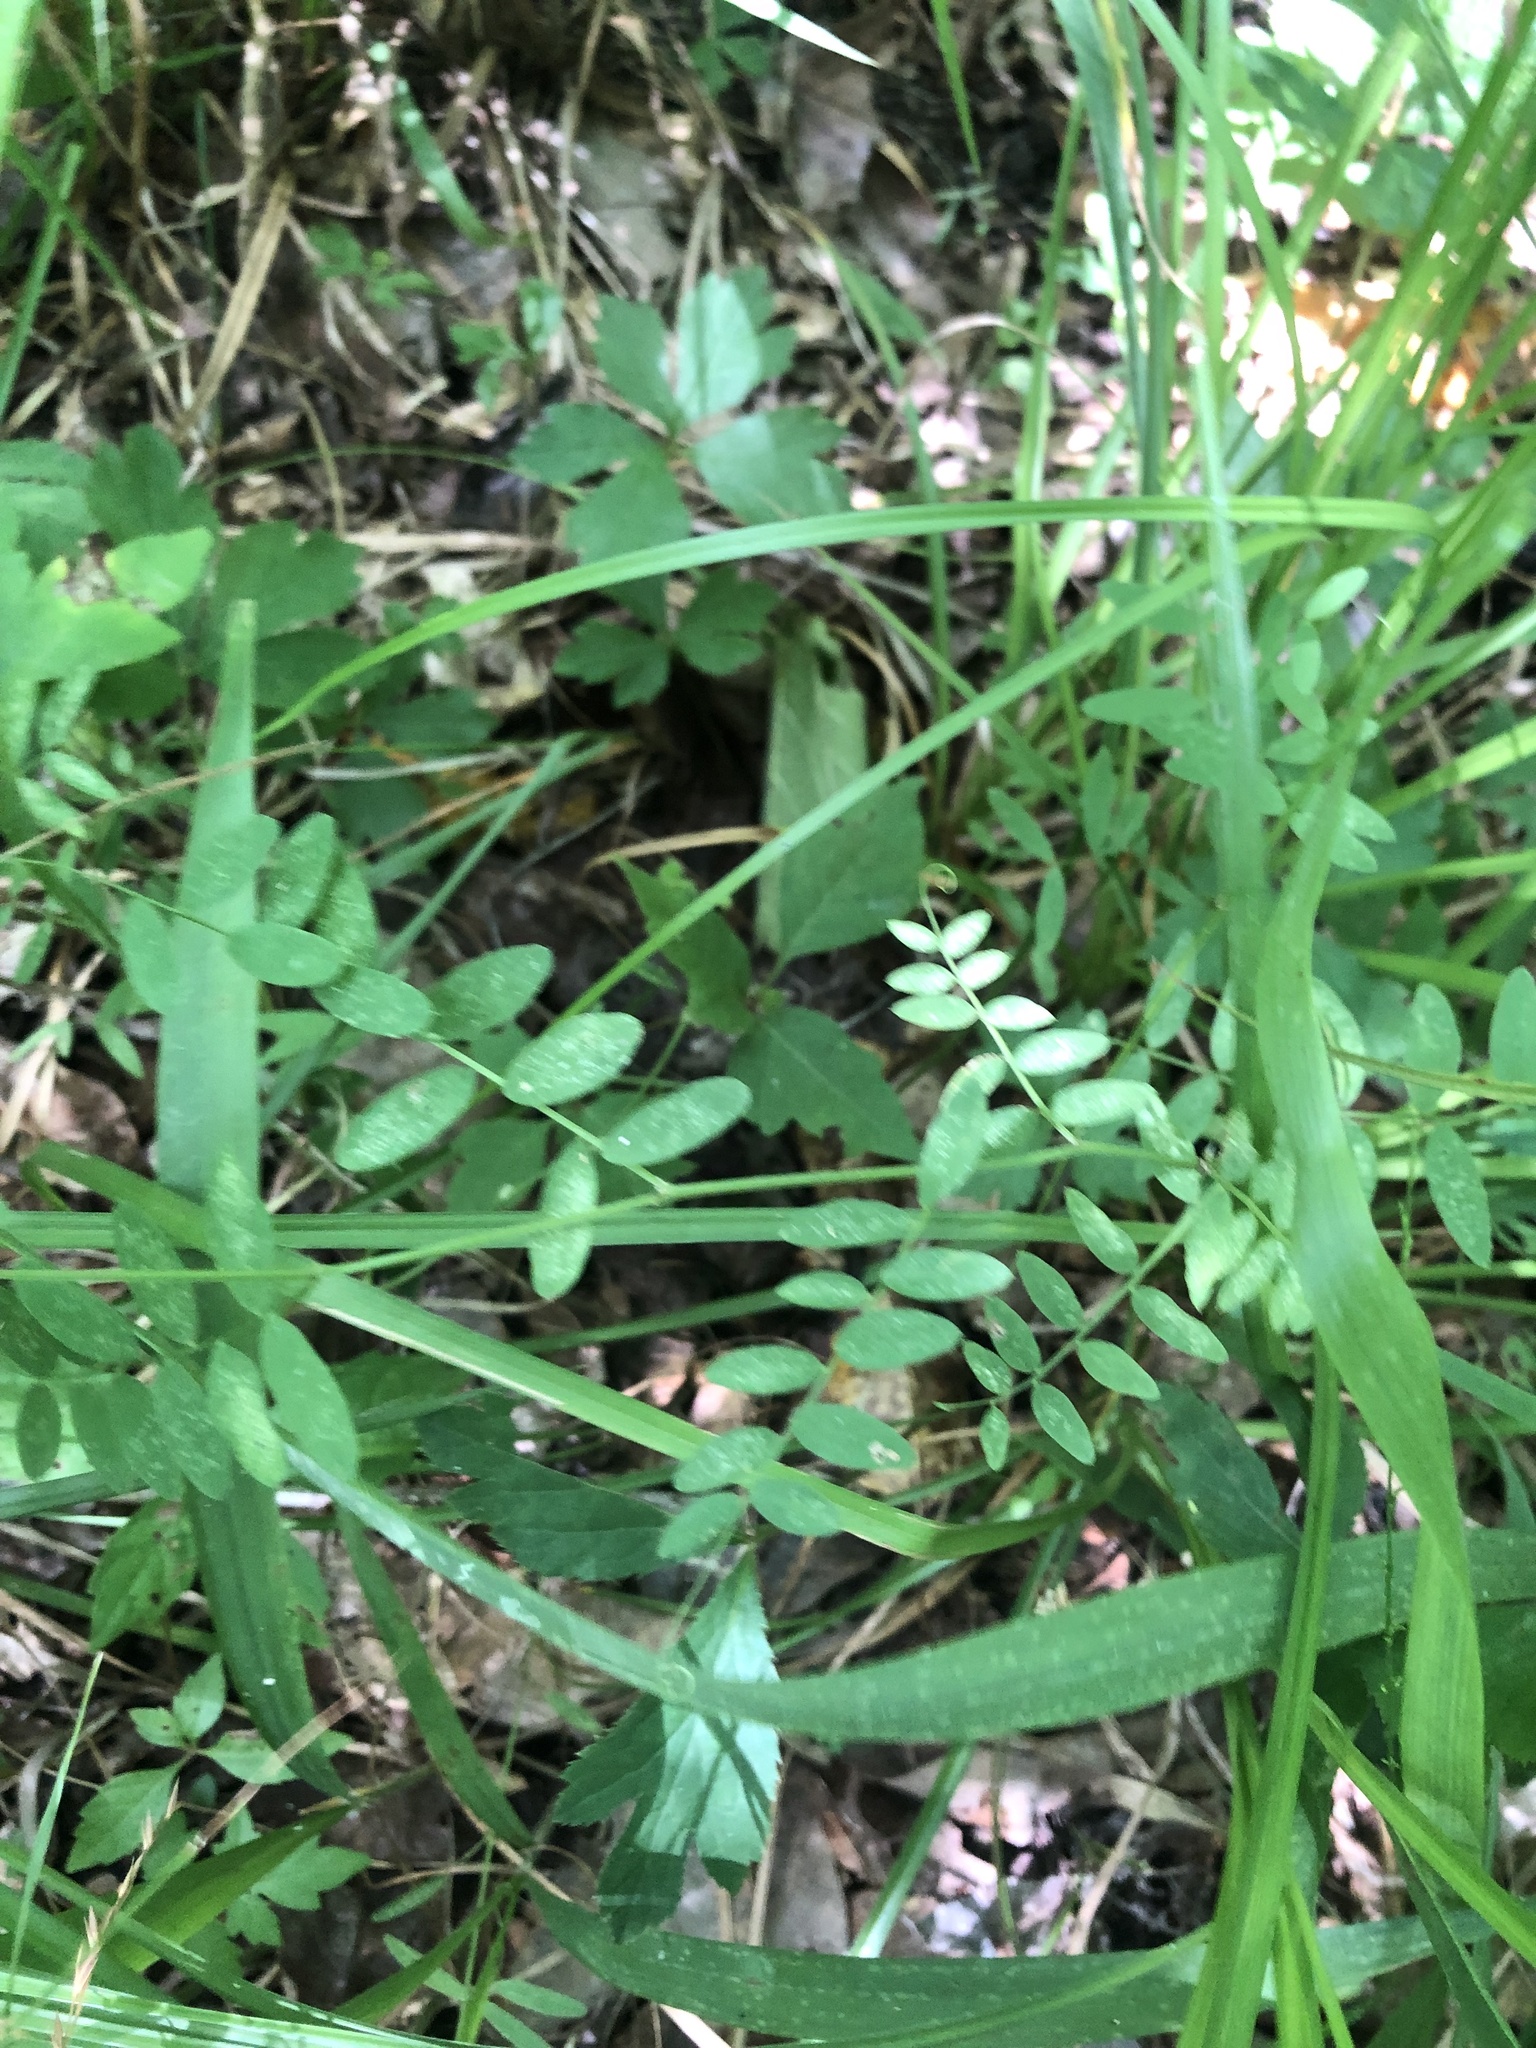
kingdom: Plantae
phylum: Tracheophyta
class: Magnoliopsida
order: Fabales
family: Fabaceae
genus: Vicia
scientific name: Vicia caroliniana
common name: Carolina vetch
